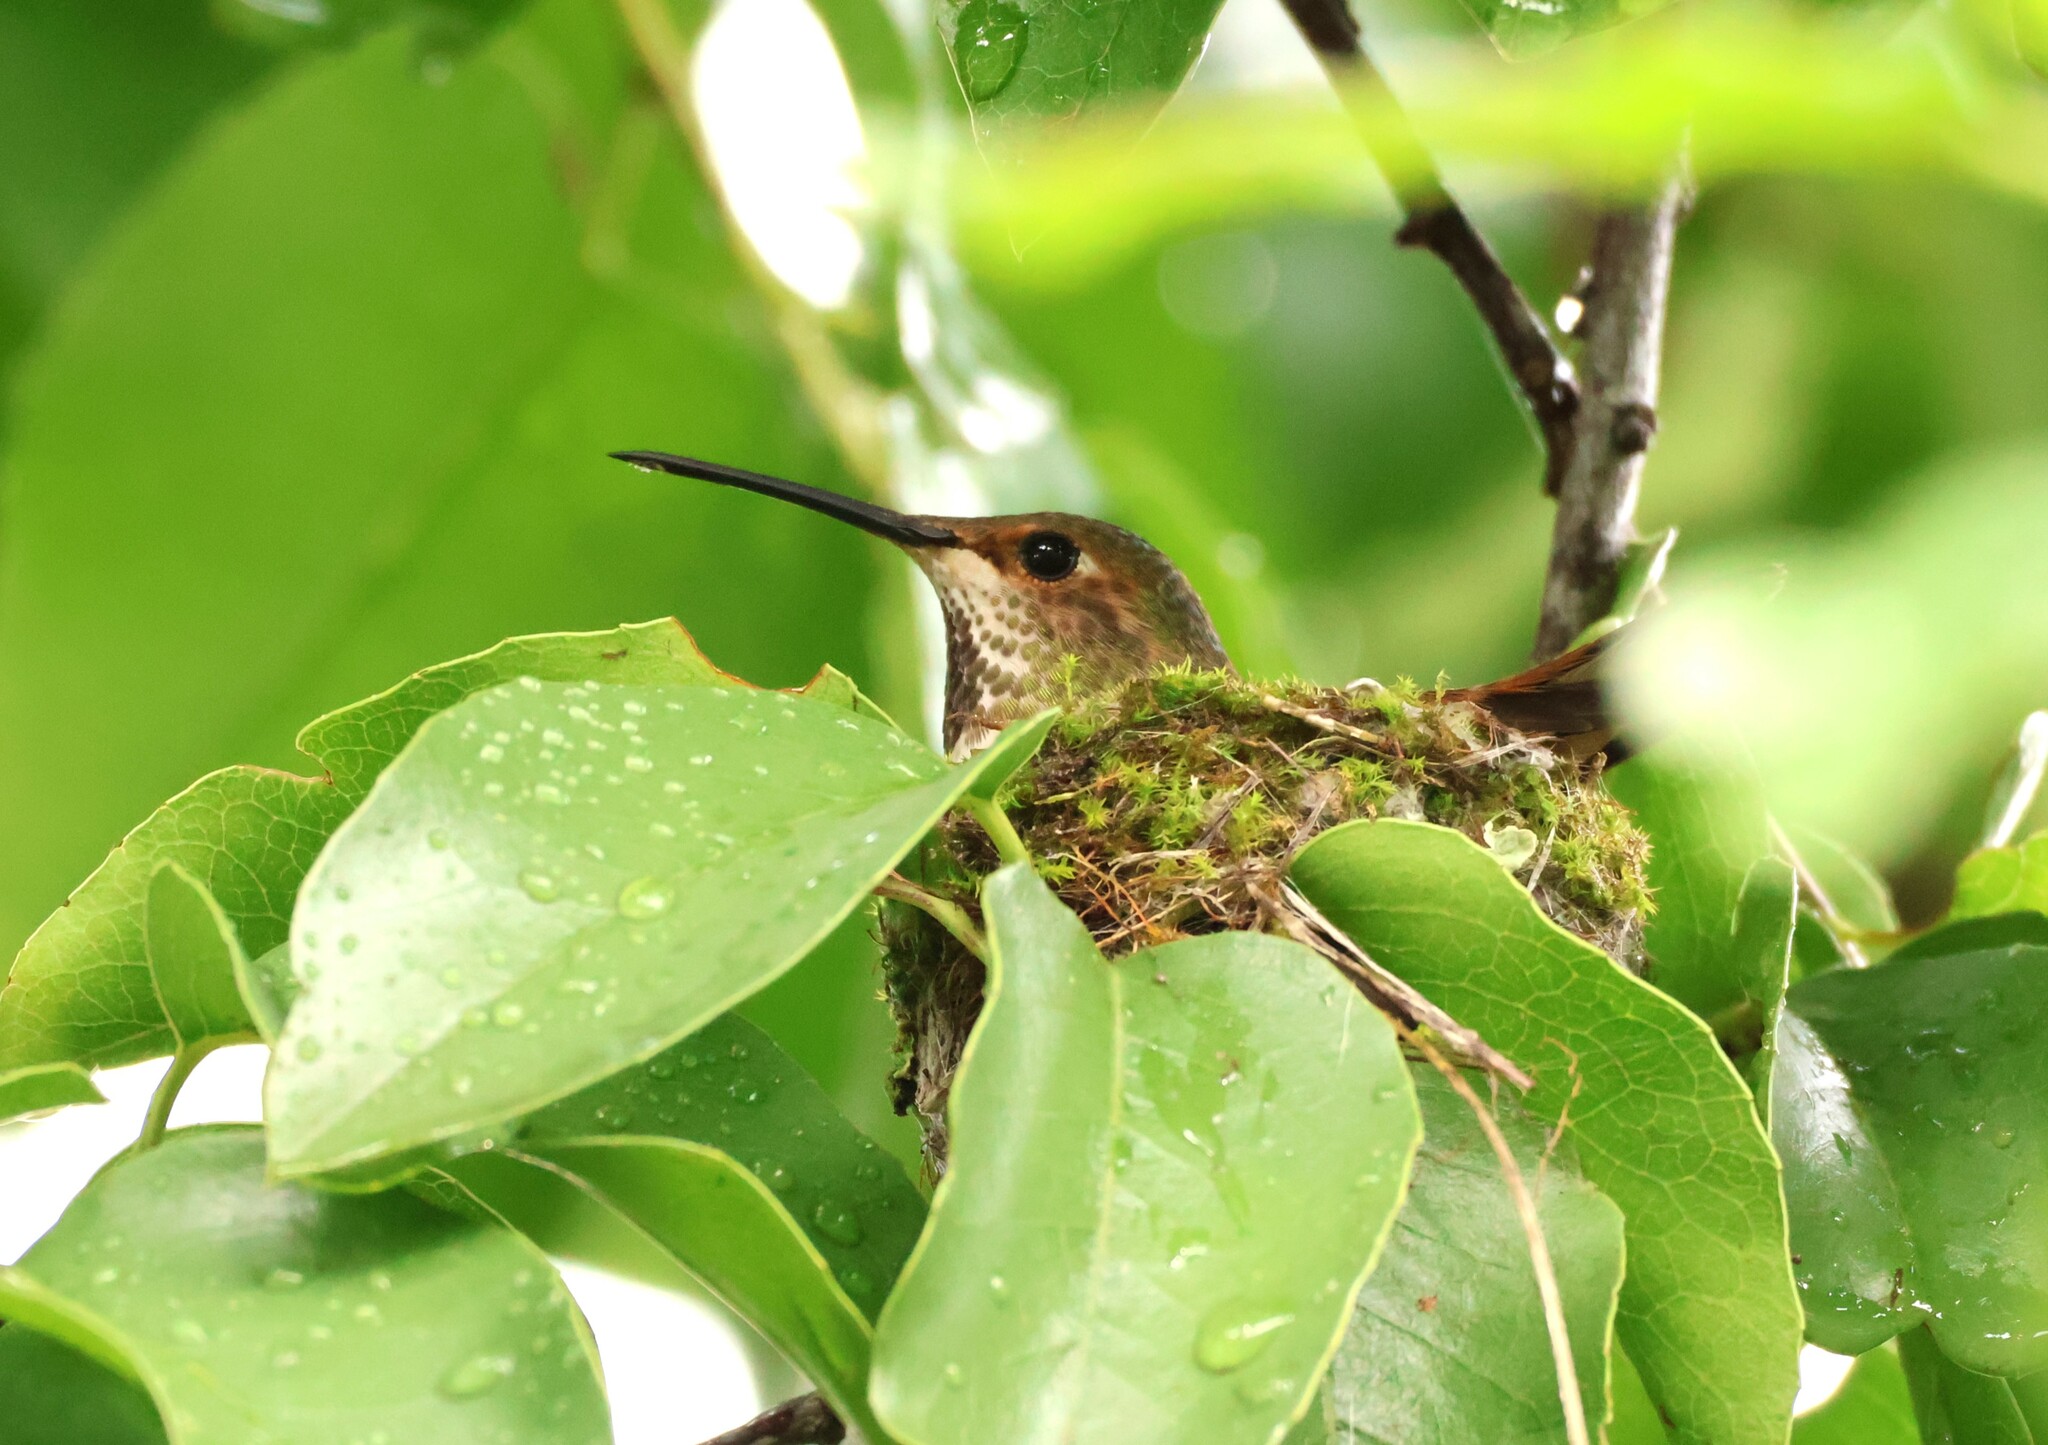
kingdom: Animalia
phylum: Chordata
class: Aves
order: Apodiformes
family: Trochilidae
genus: Selasphorus
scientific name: Selasphorus sasin
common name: Allen's hummingbird
